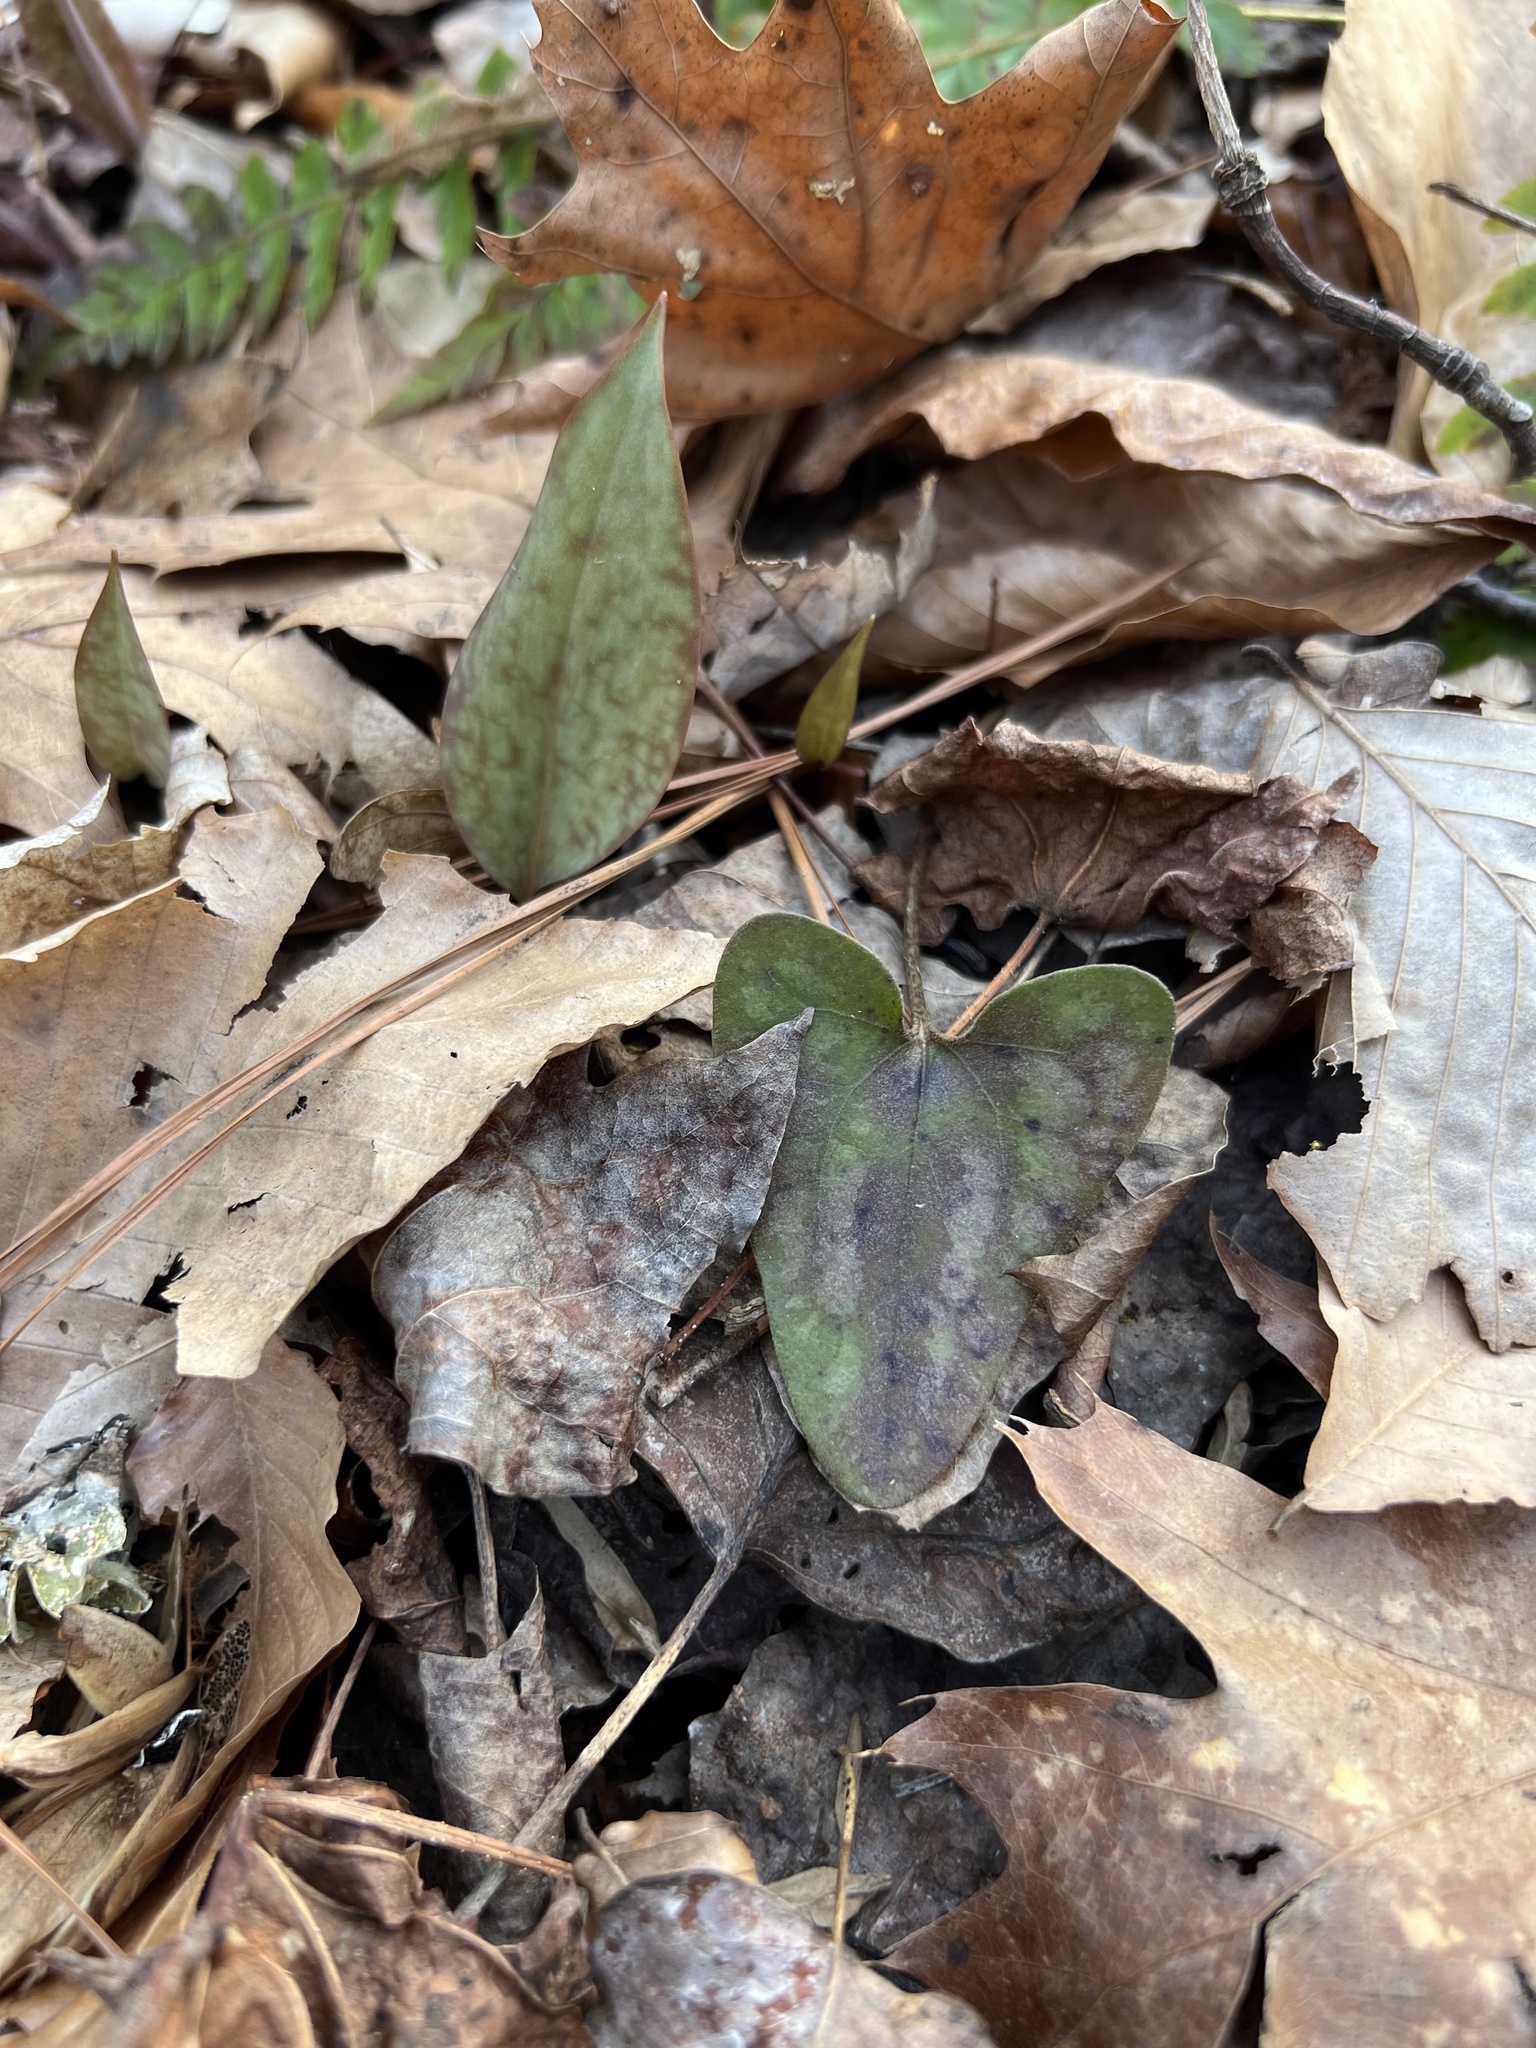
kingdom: Plantae
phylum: Tracheophyta
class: Magnoliopsida
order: Piperales
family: Aristolochiaceae
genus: Hexastylis
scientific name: Hexastylis arifolia
